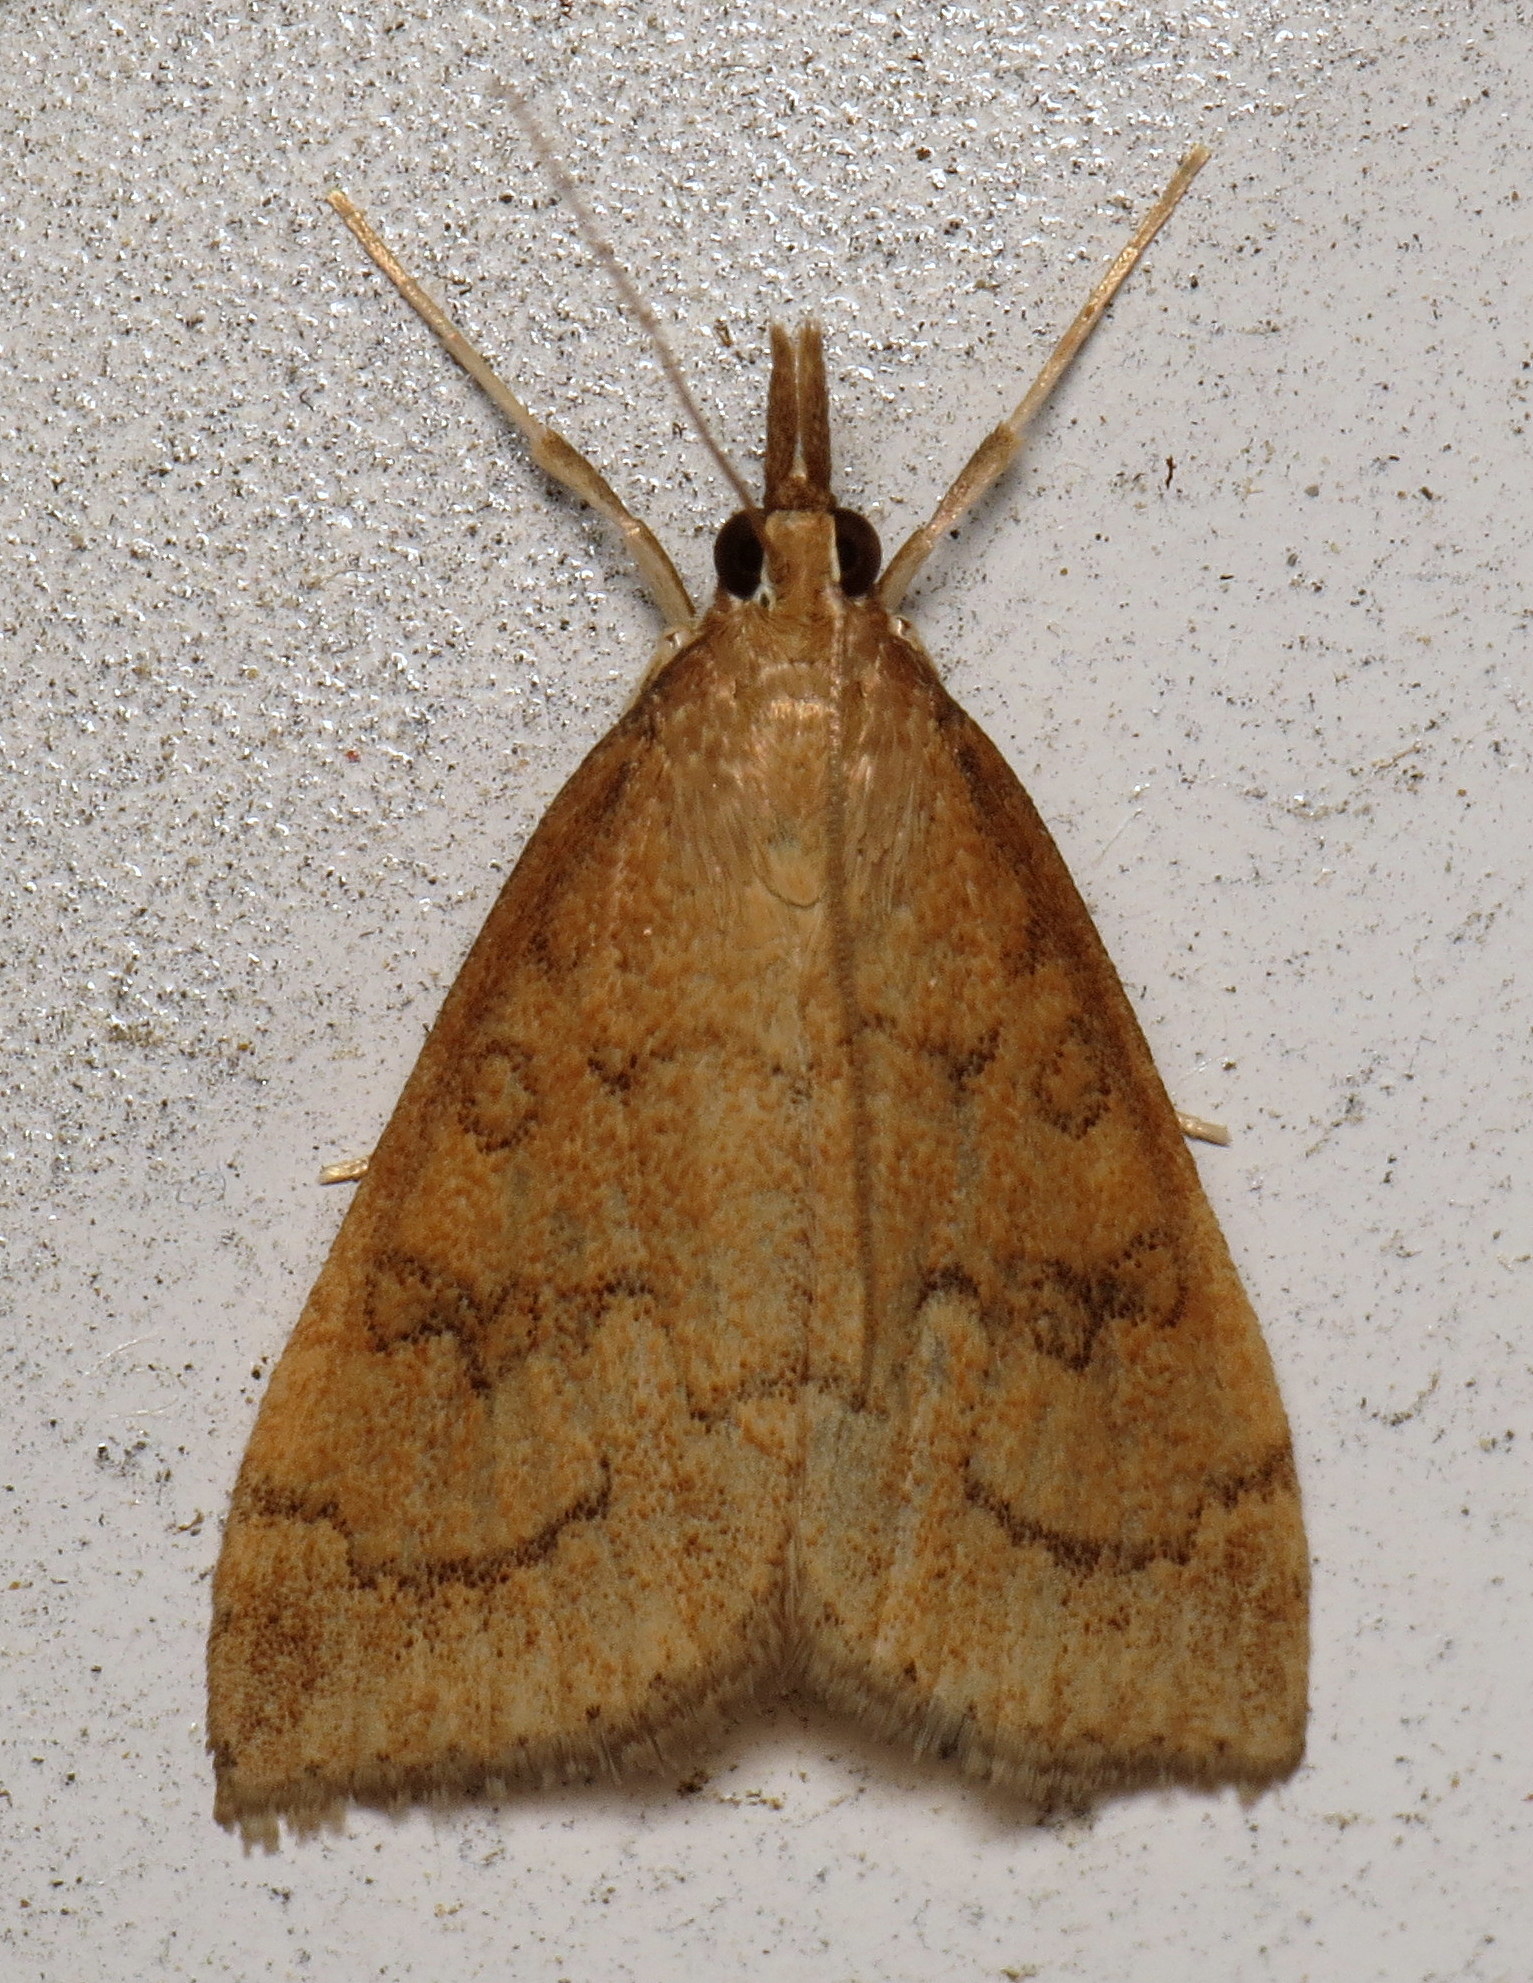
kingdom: Animalia
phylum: Arthropoda
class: Insecta
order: Lepidoptera
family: Crambidae
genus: Udea
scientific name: Udea rubigalis
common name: Celery leaftier moth
